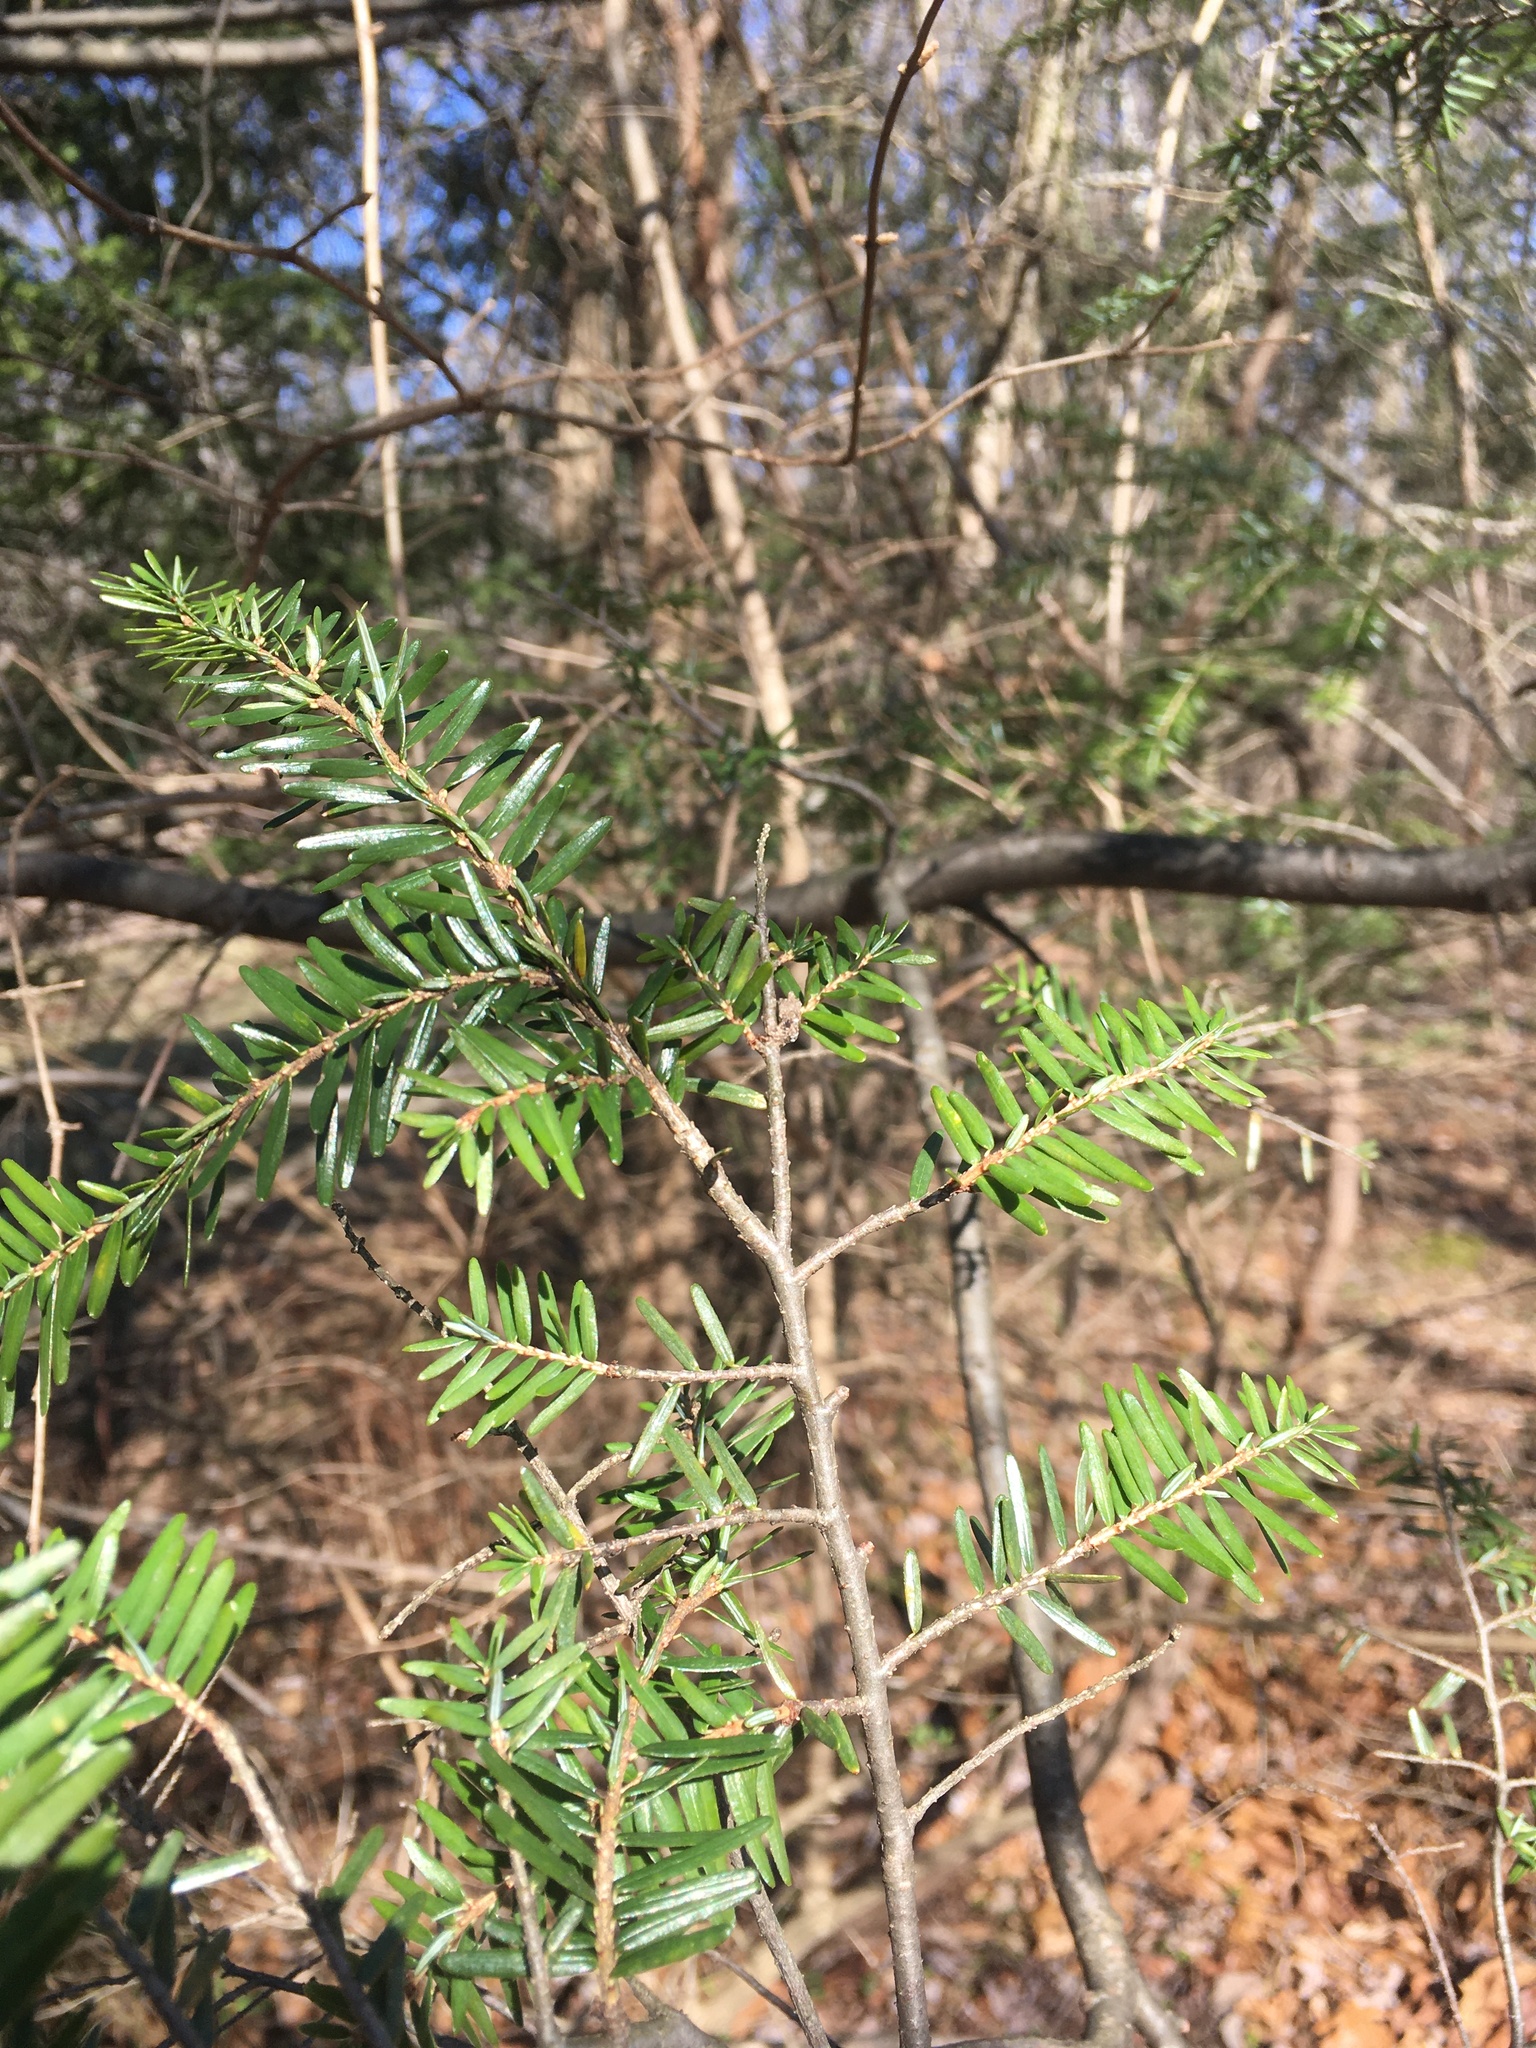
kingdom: Plantae
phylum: Tracheophyta
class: Pinopsida
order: Pinales
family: Pinaceae
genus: Tsuga
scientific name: Tsuga canadensis
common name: Eastern hemlock
